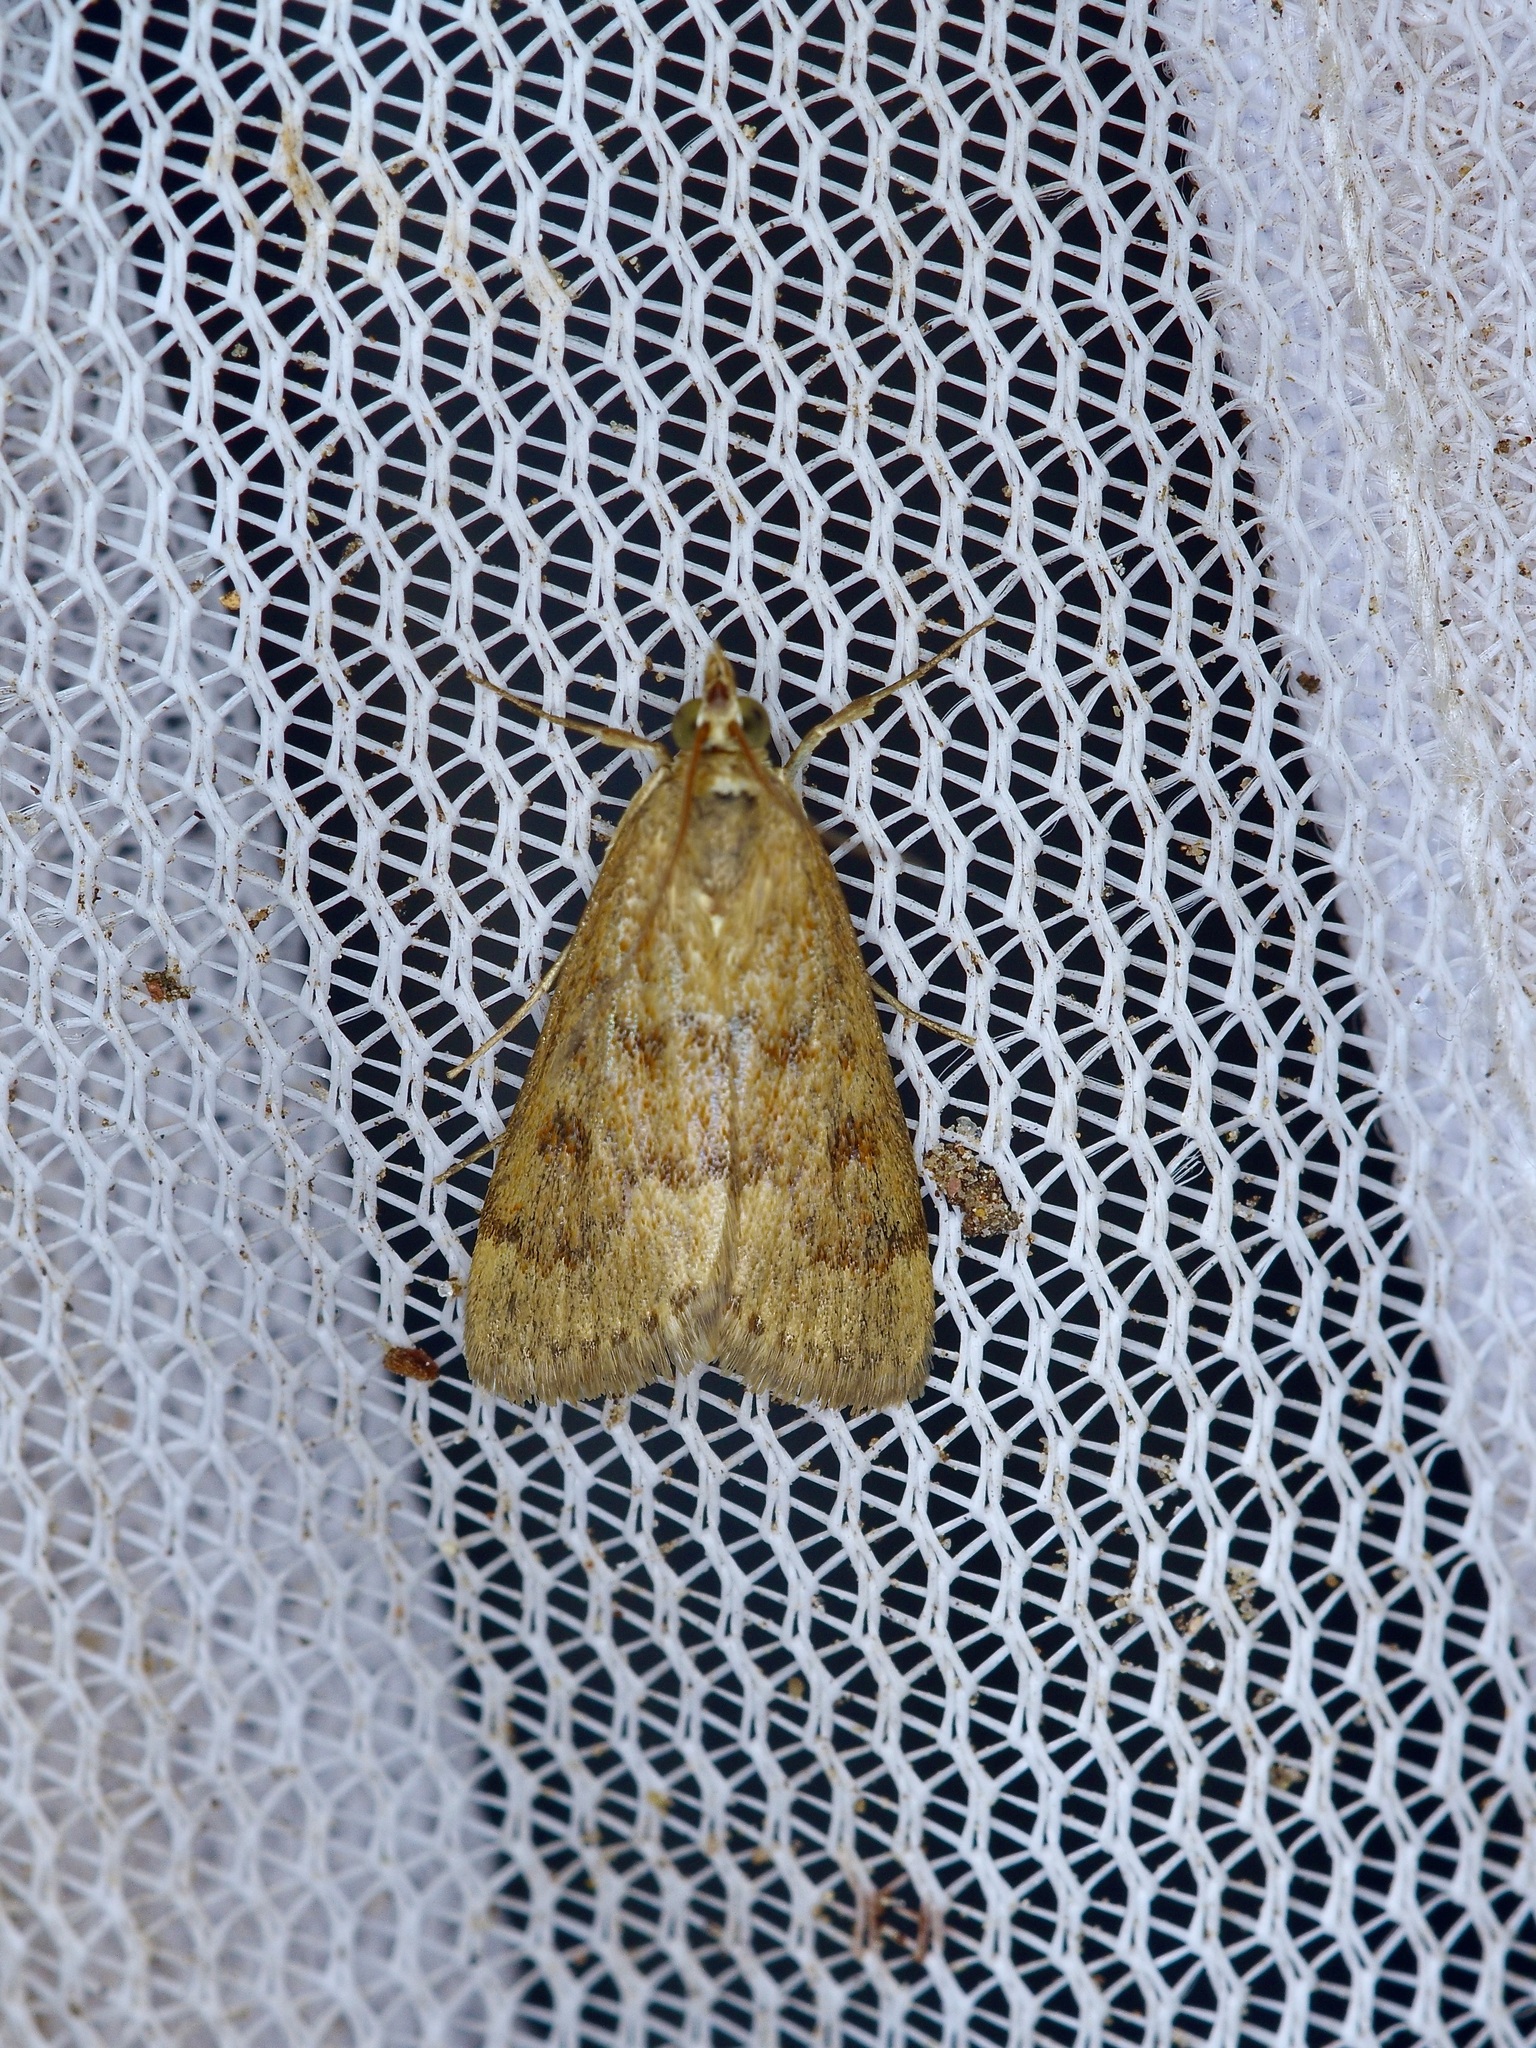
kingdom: Animalia
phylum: Arthropoda
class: Insecta
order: Lepidoptera
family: Crambidae
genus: Achyra
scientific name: Achyra rantalis
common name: Garden webworm
